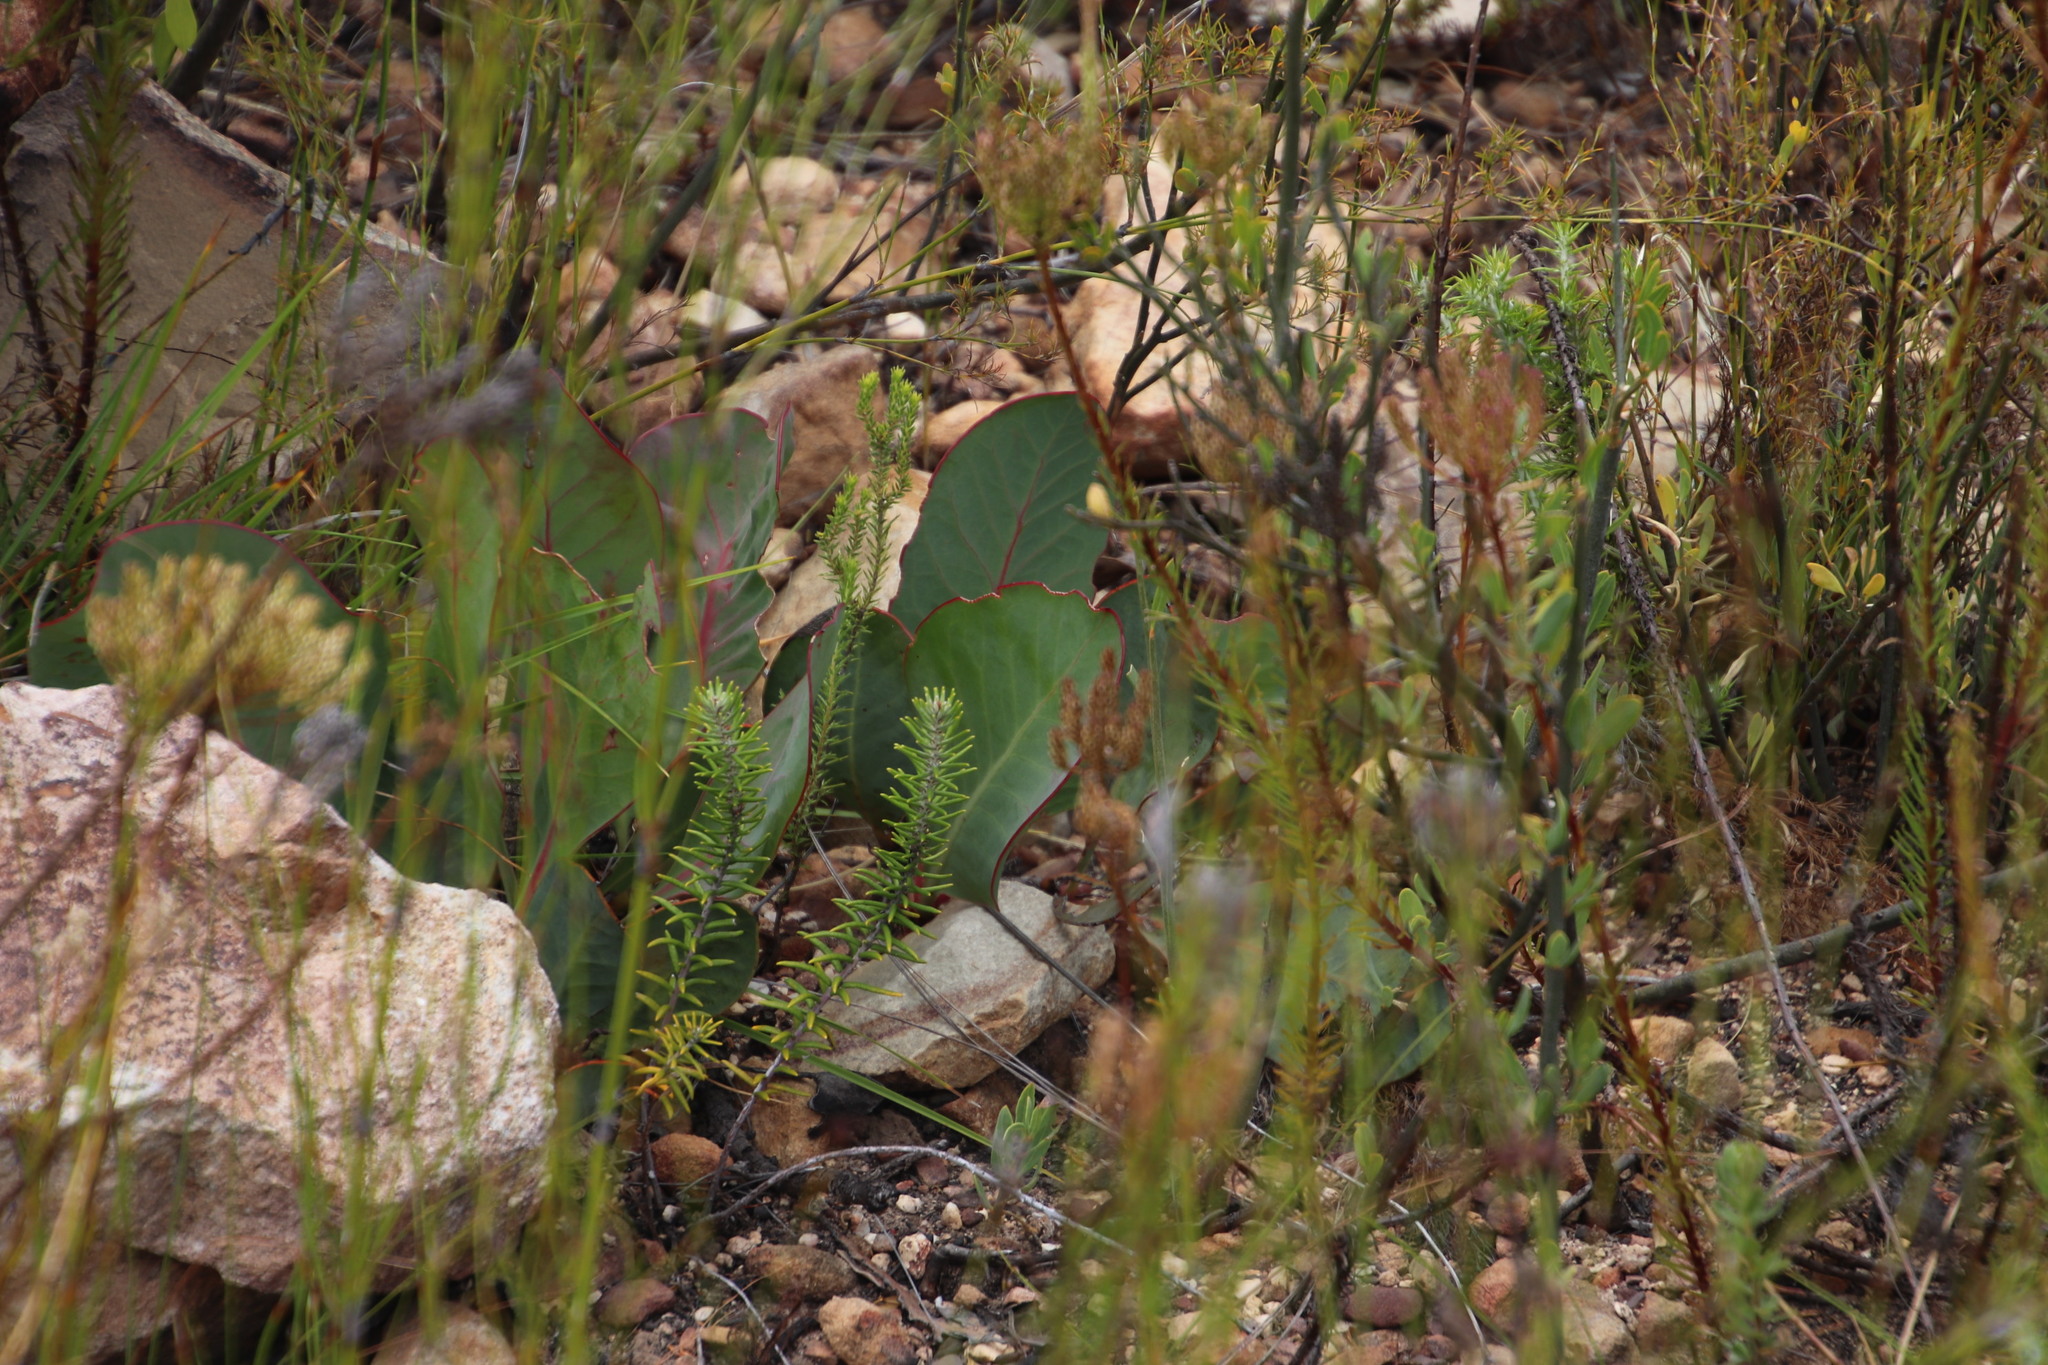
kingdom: Plantae
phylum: Tracheophyta
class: Magnoliopsida
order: Proteales
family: Proteaceae
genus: Protea
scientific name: Protea acaulos
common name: Common ground sugarbush
